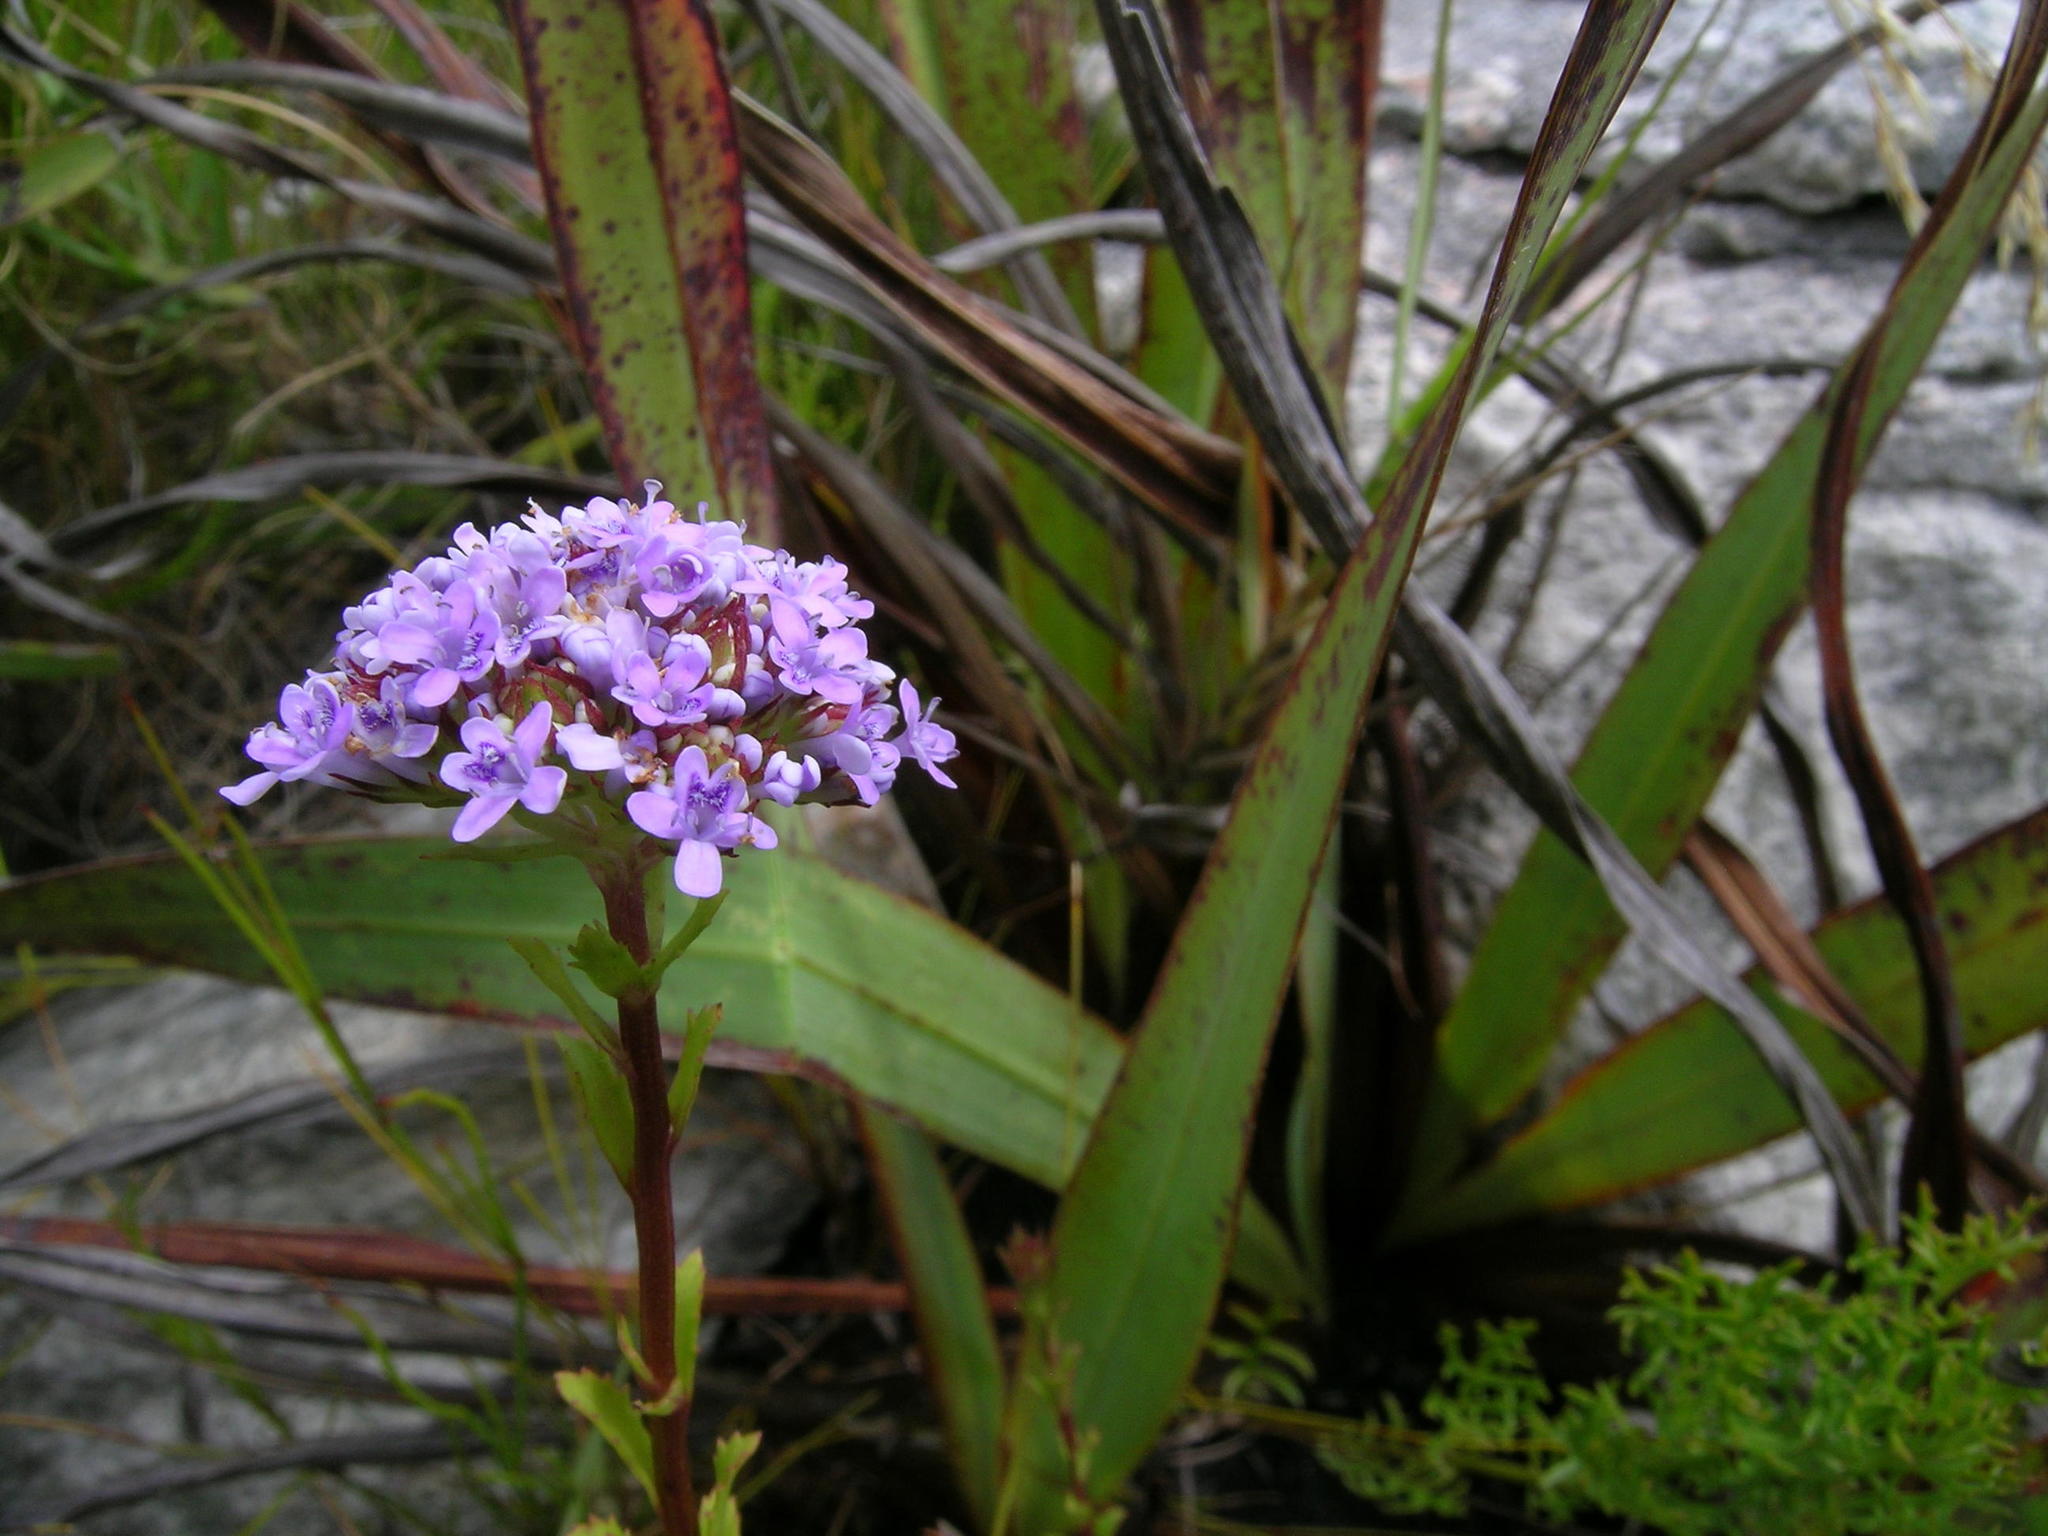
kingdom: Plantae
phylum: Tracheophyta
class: Magnoliopsida
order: Lamiales
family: Scrophulariaceae
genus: Pseudoselago
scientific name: Pseudoselago langebergensis
